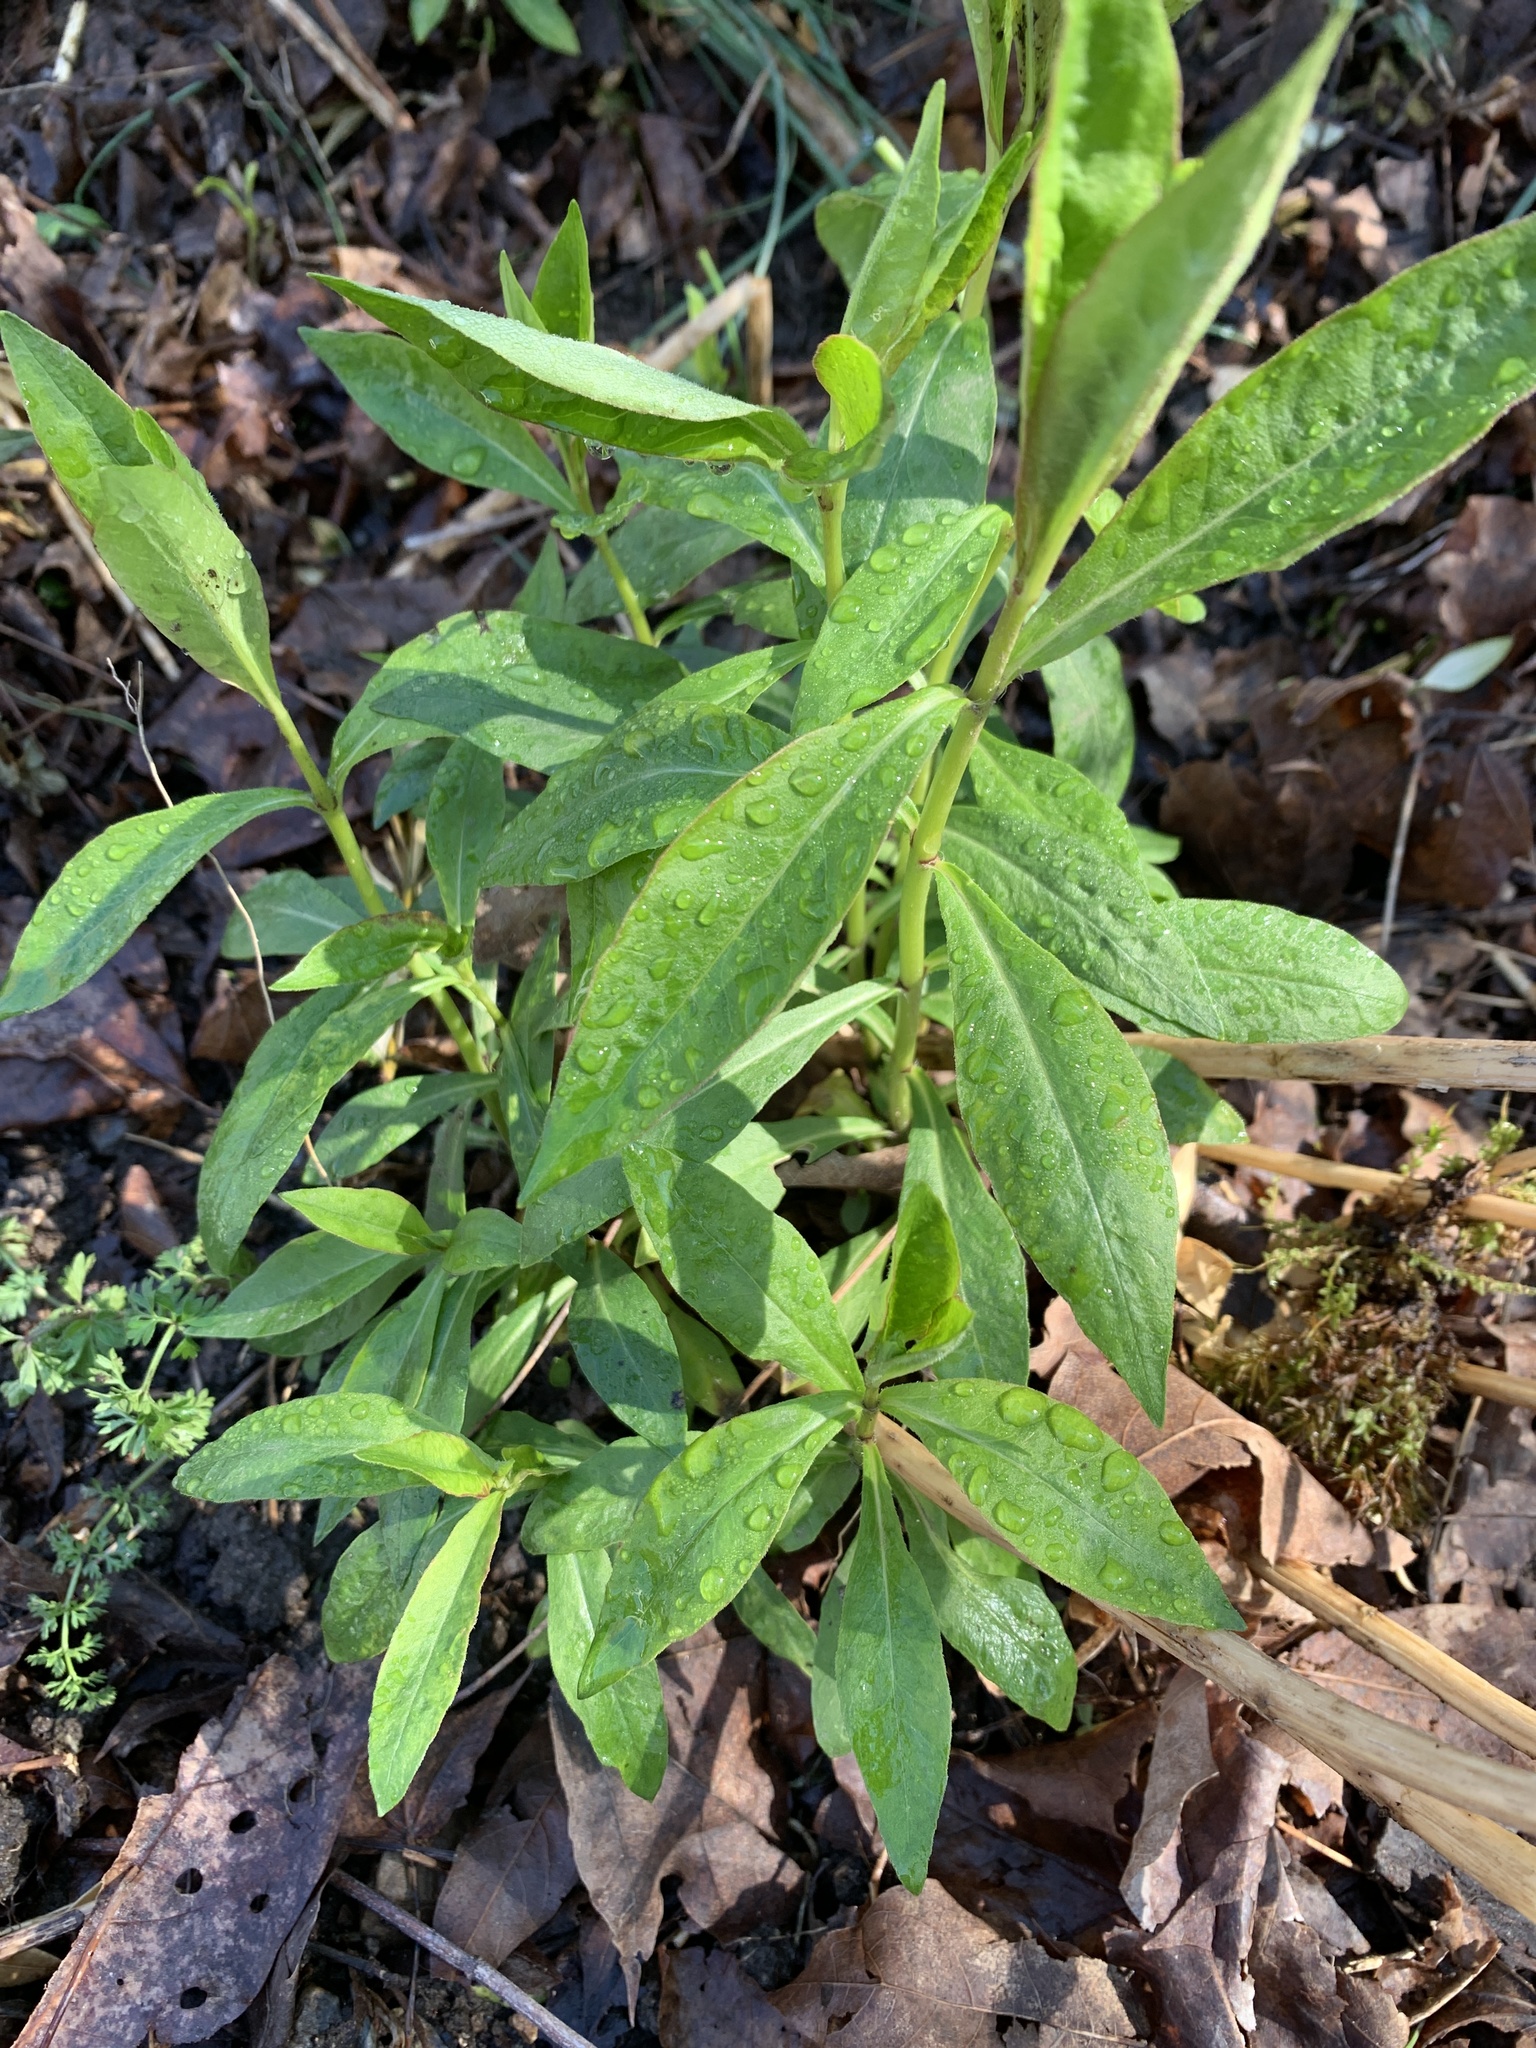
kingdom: Plantae
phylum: Tracheophyta
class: Magnoliopsida
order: Ericales
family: Polemoniaceae
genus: Phlox
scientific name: Phlox paniculata
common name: Fall phlox
